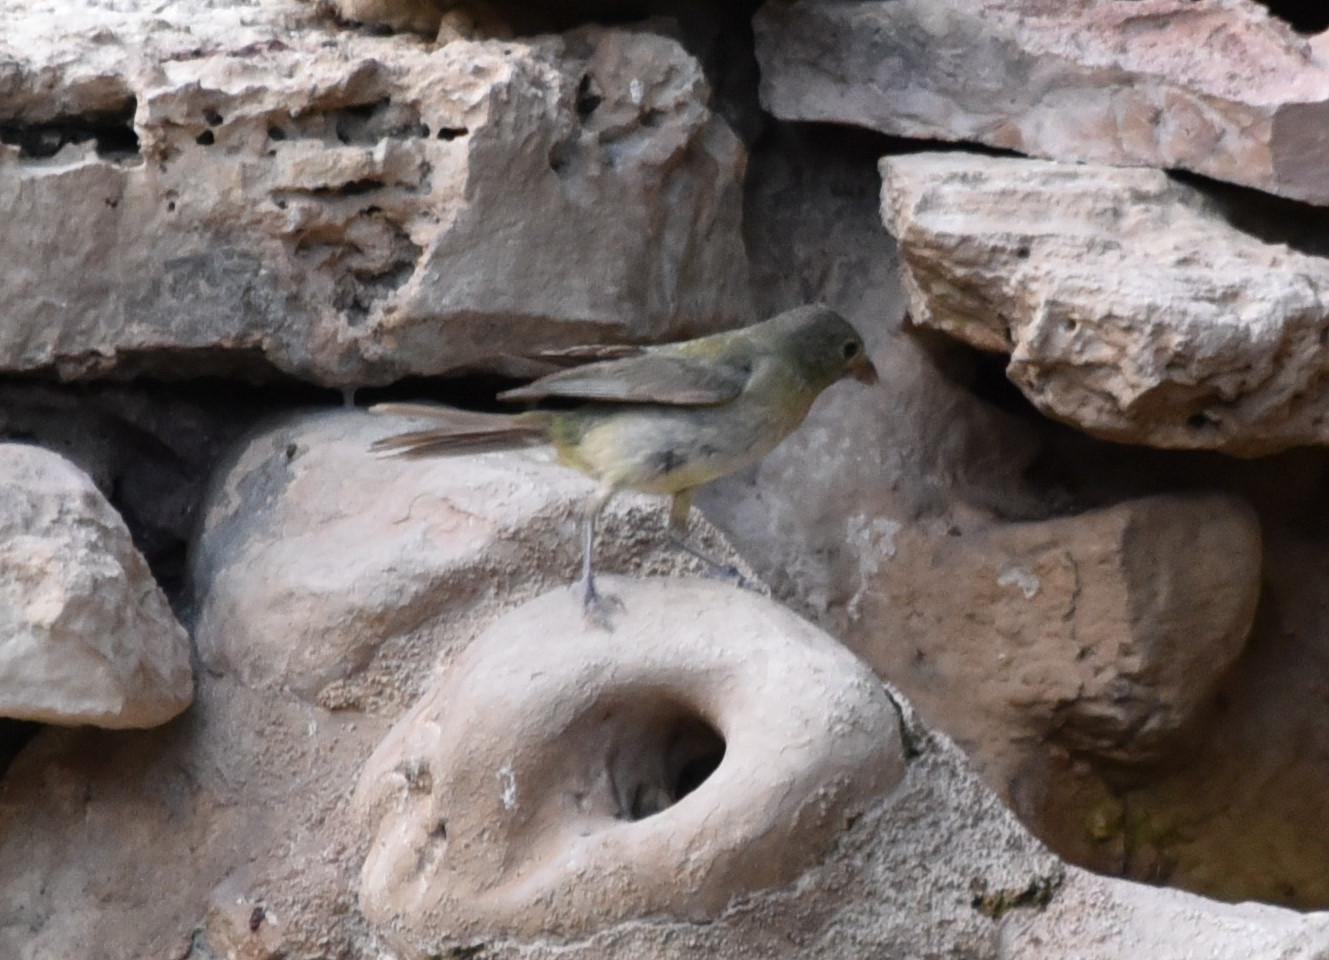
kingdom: Animalia
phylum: Chordata
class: Aves
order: Passeriformes
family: Cardinalidae
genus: Passerina
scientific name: Passerina ciris
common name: Painted bunting
